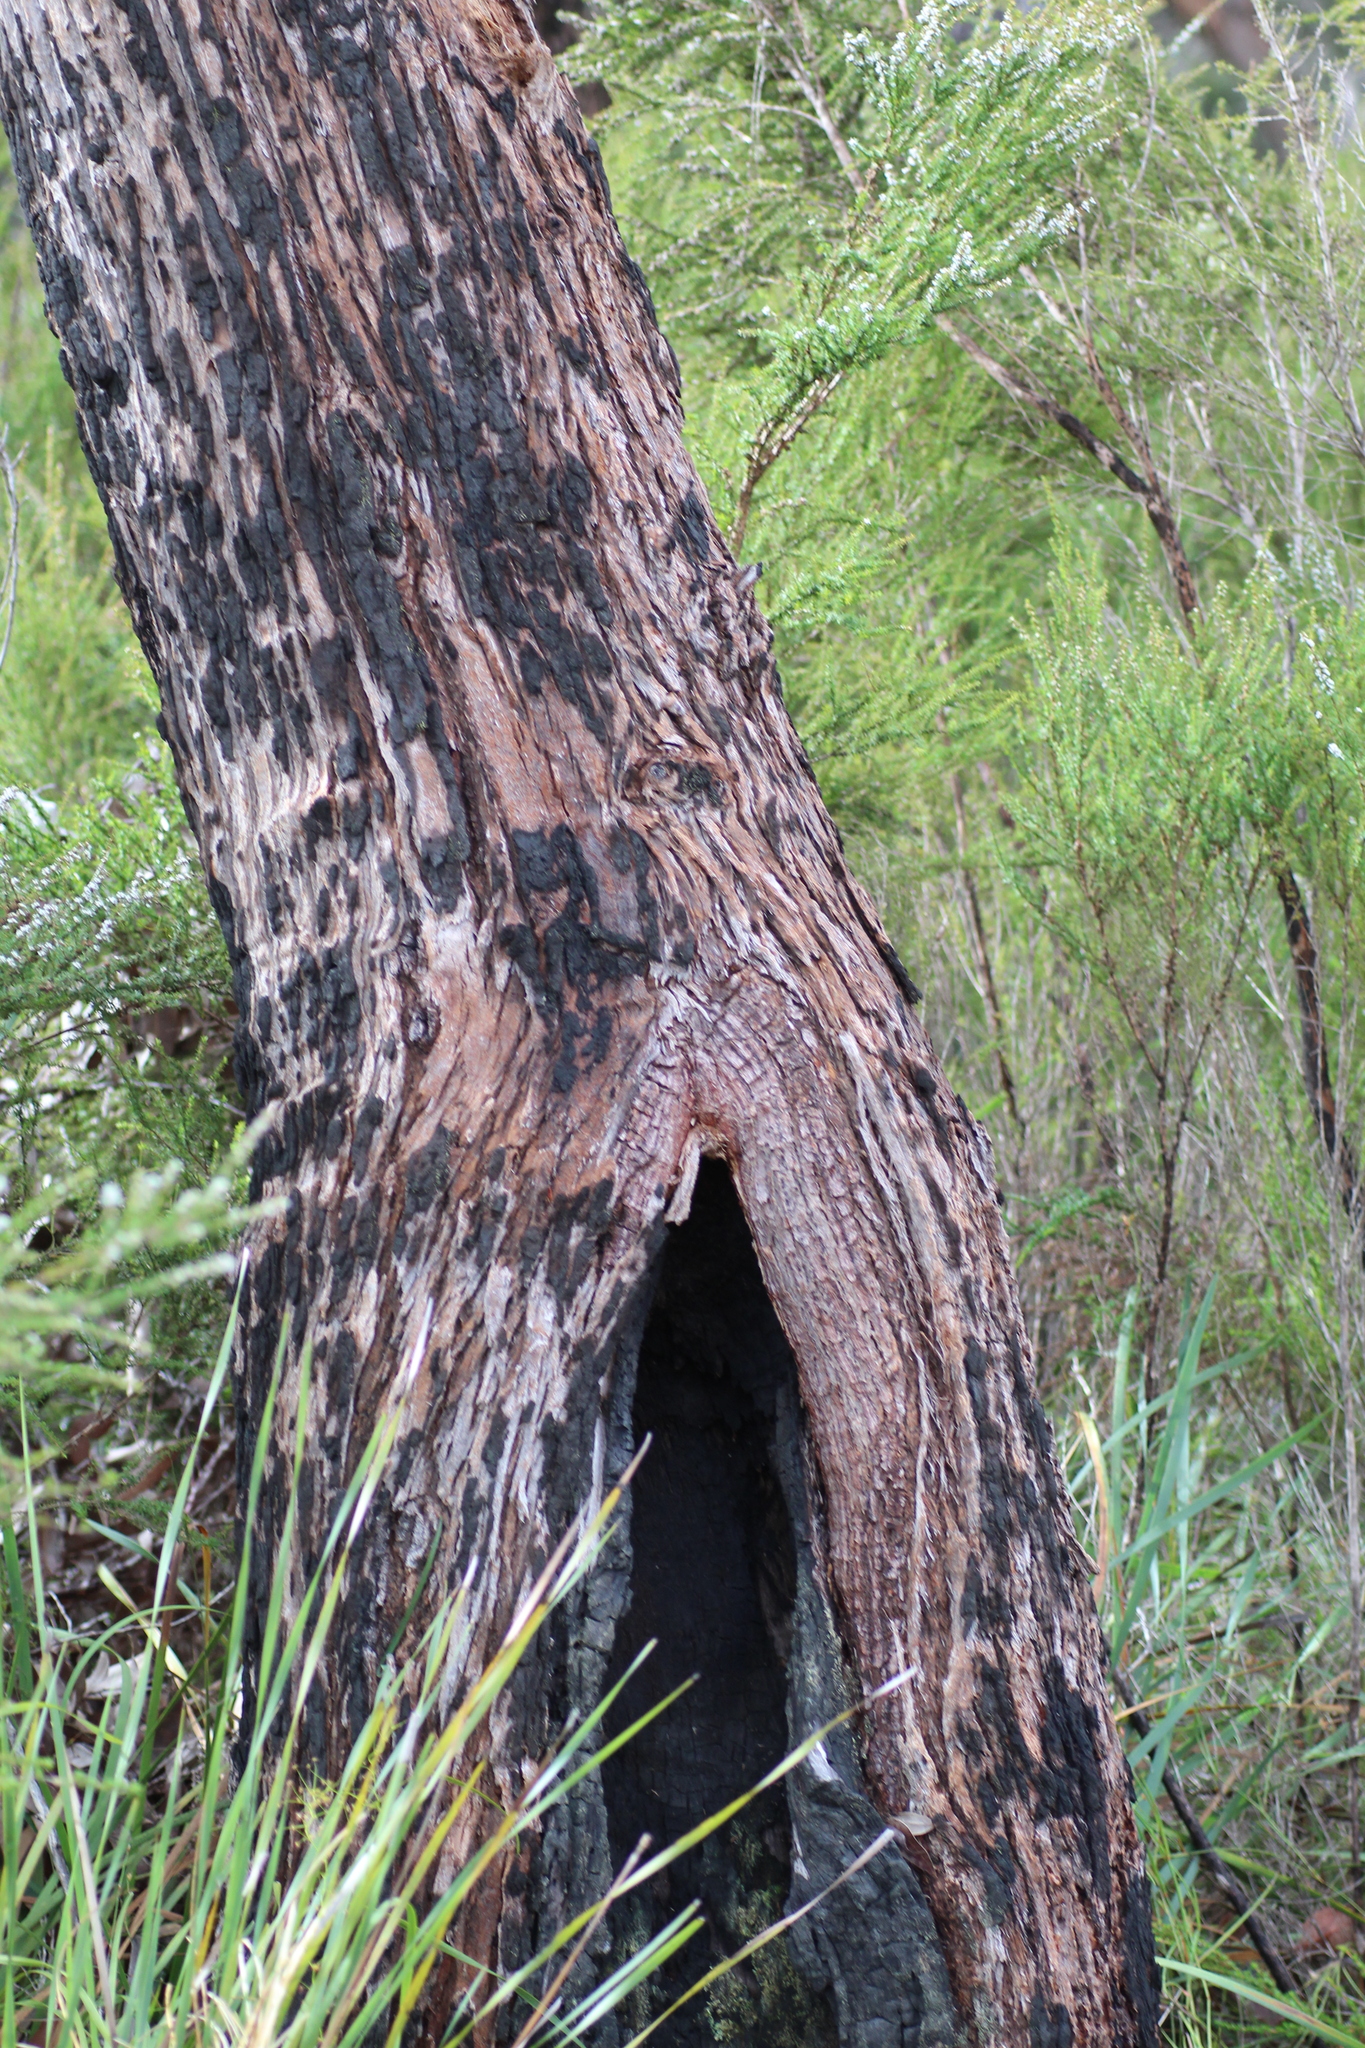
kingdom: Plantae
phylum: Tracheophyta
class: Magnoliopsida
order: Myrtales
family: Myrtaceae
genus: Corymbia
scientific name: Corymbia ficifolia
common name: Redflower gum
